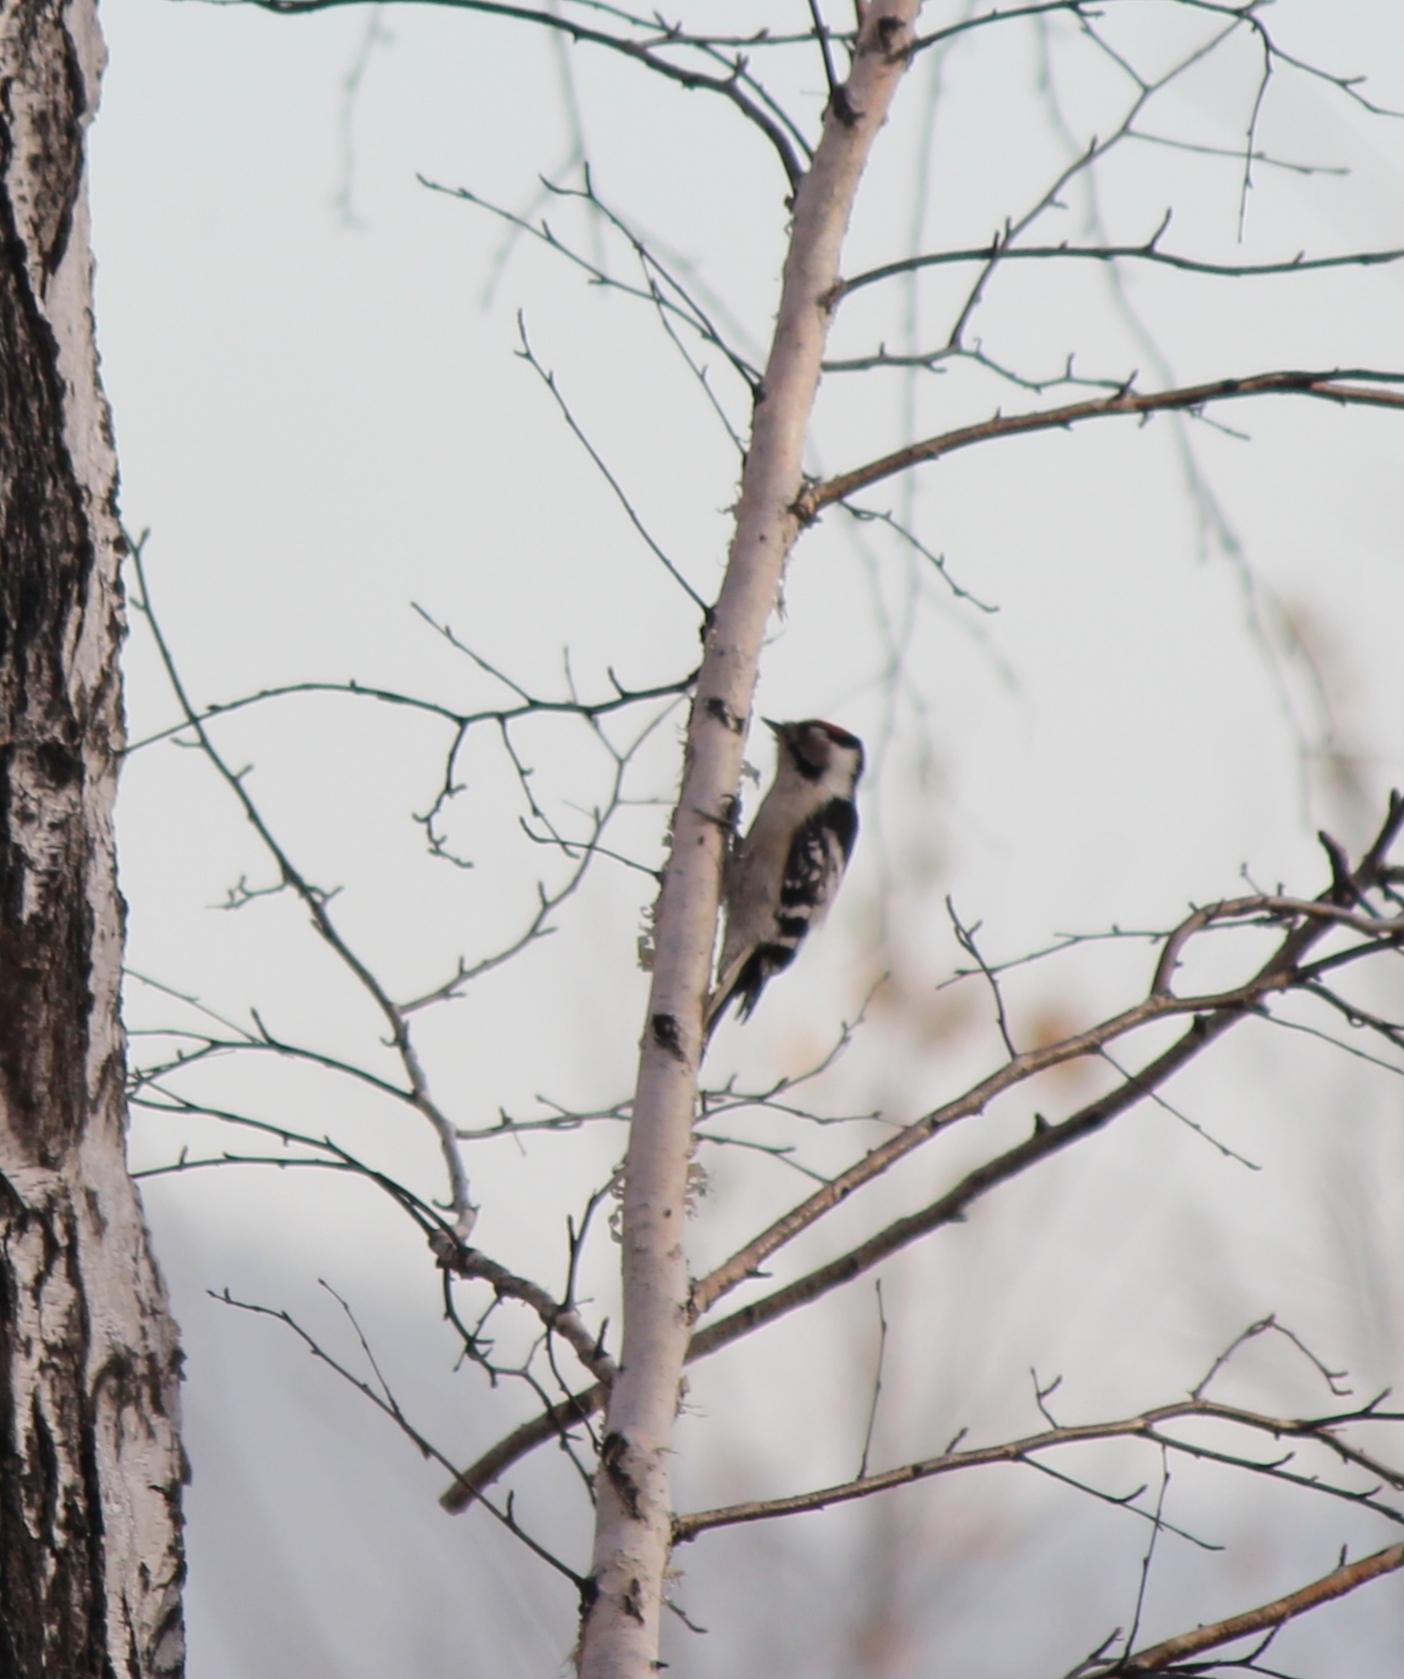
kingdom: Animalia
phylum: Chordata
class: Aves
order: Piciformes
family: Picidae
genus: Dryobates
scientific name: Dryobates minor
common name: Lesser spotted woodpecker
